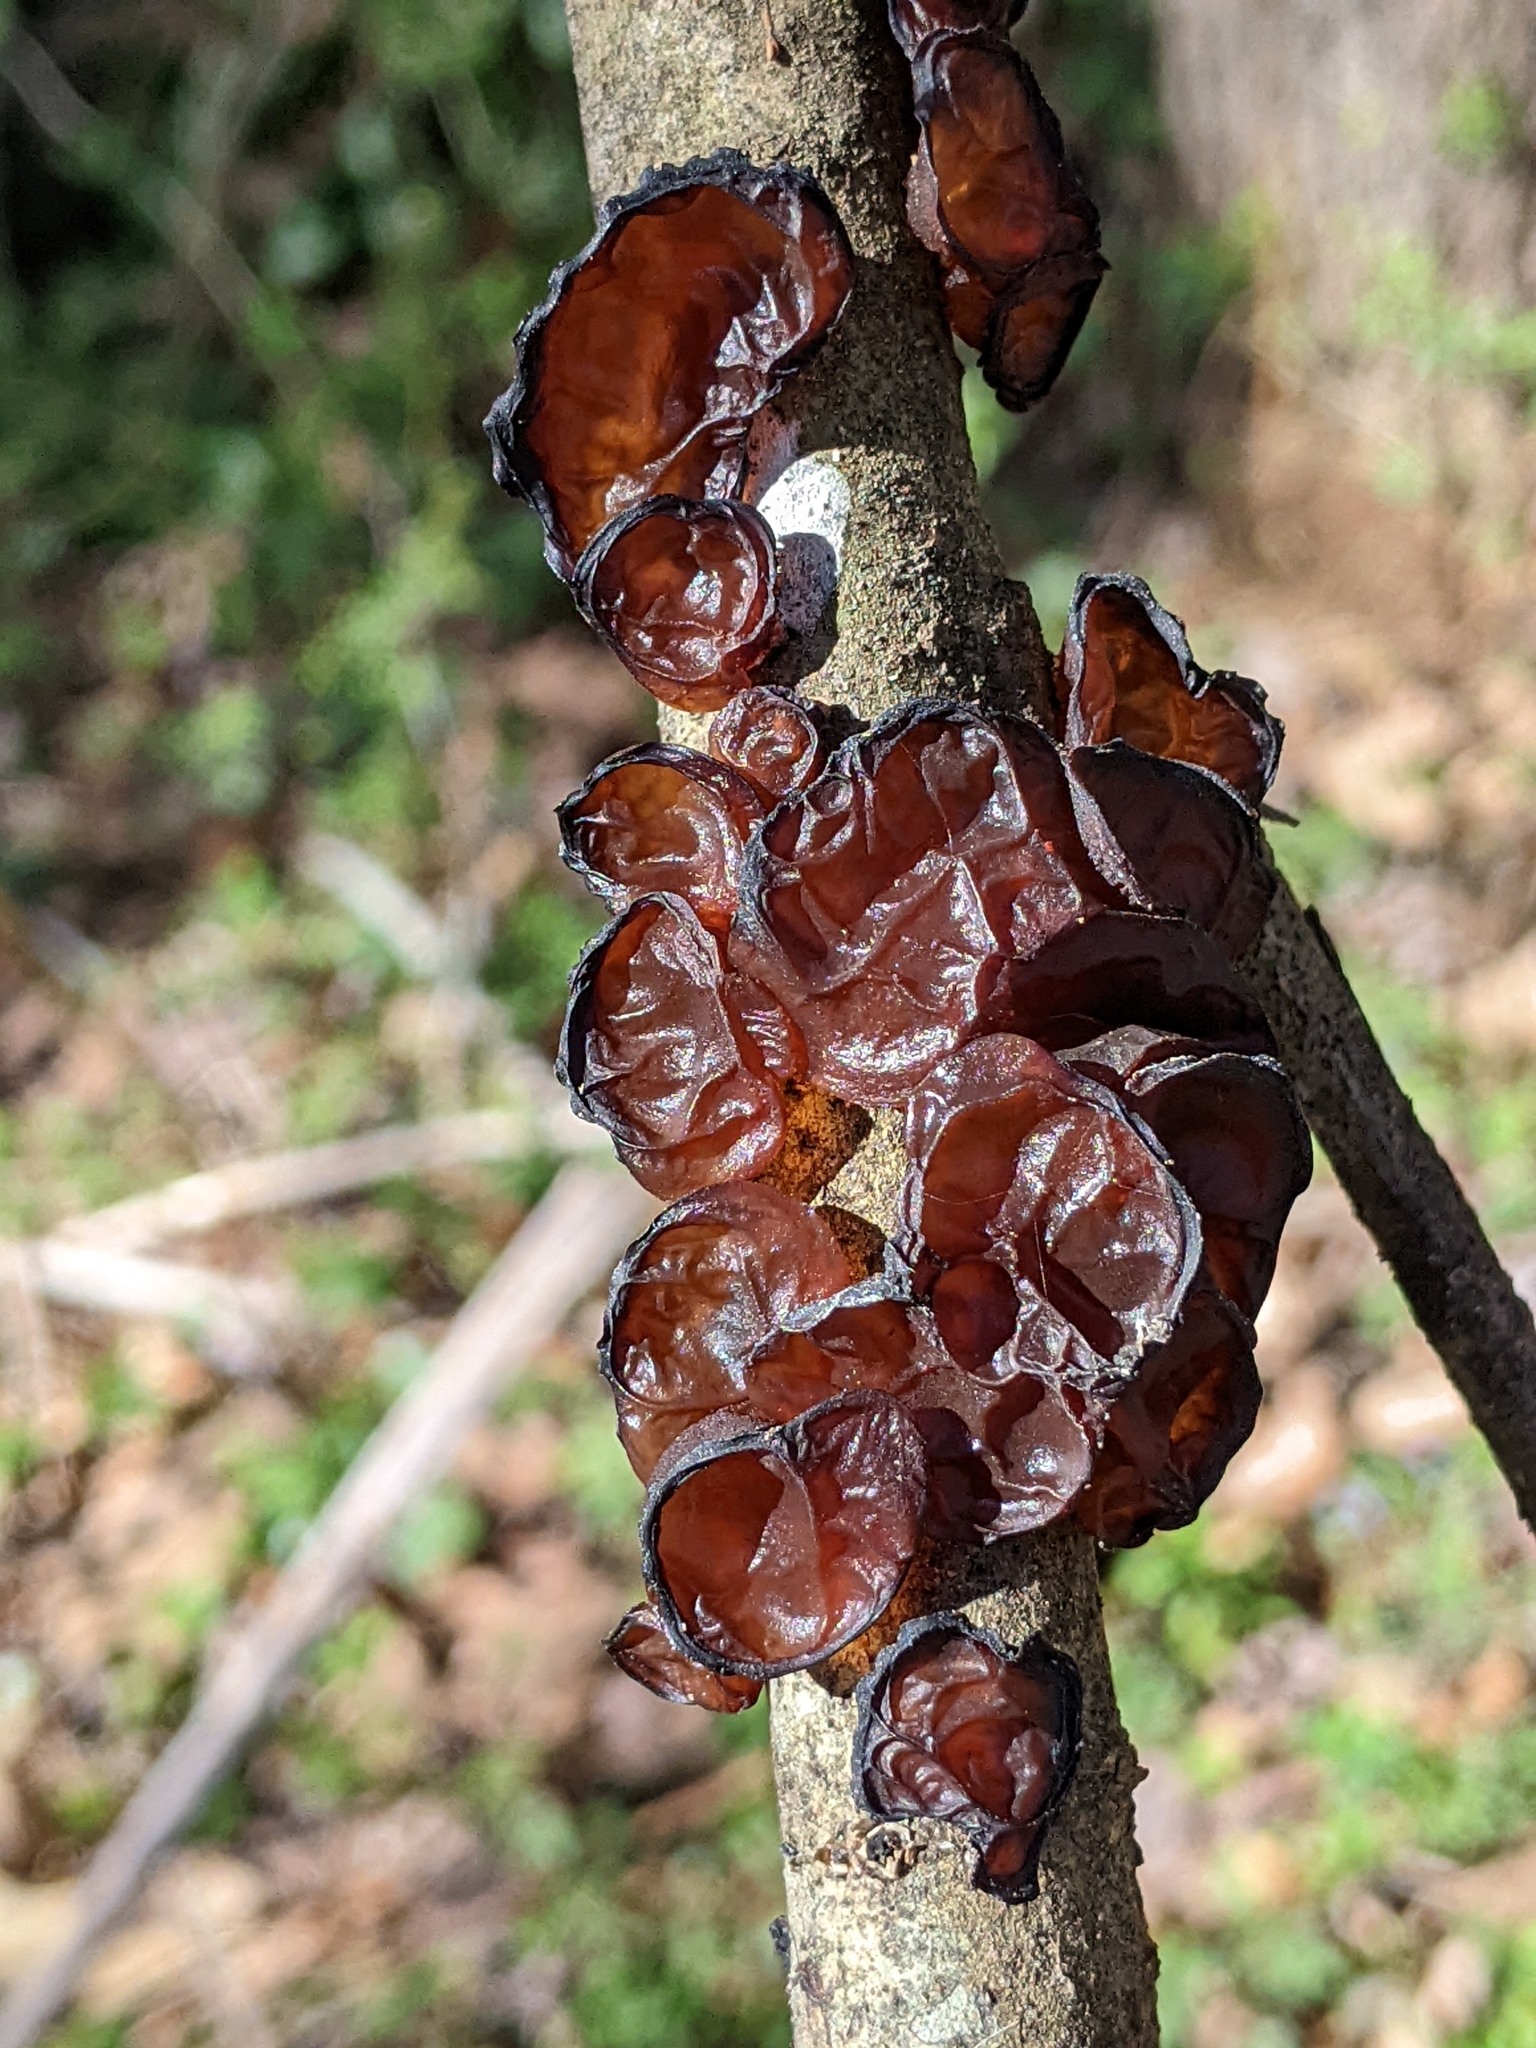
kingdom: Fungi
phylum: Basidiomycota
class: Agaricomycetes
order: Auriculariales
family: Auriculariaceae
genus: Exidia
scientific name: Exidia
